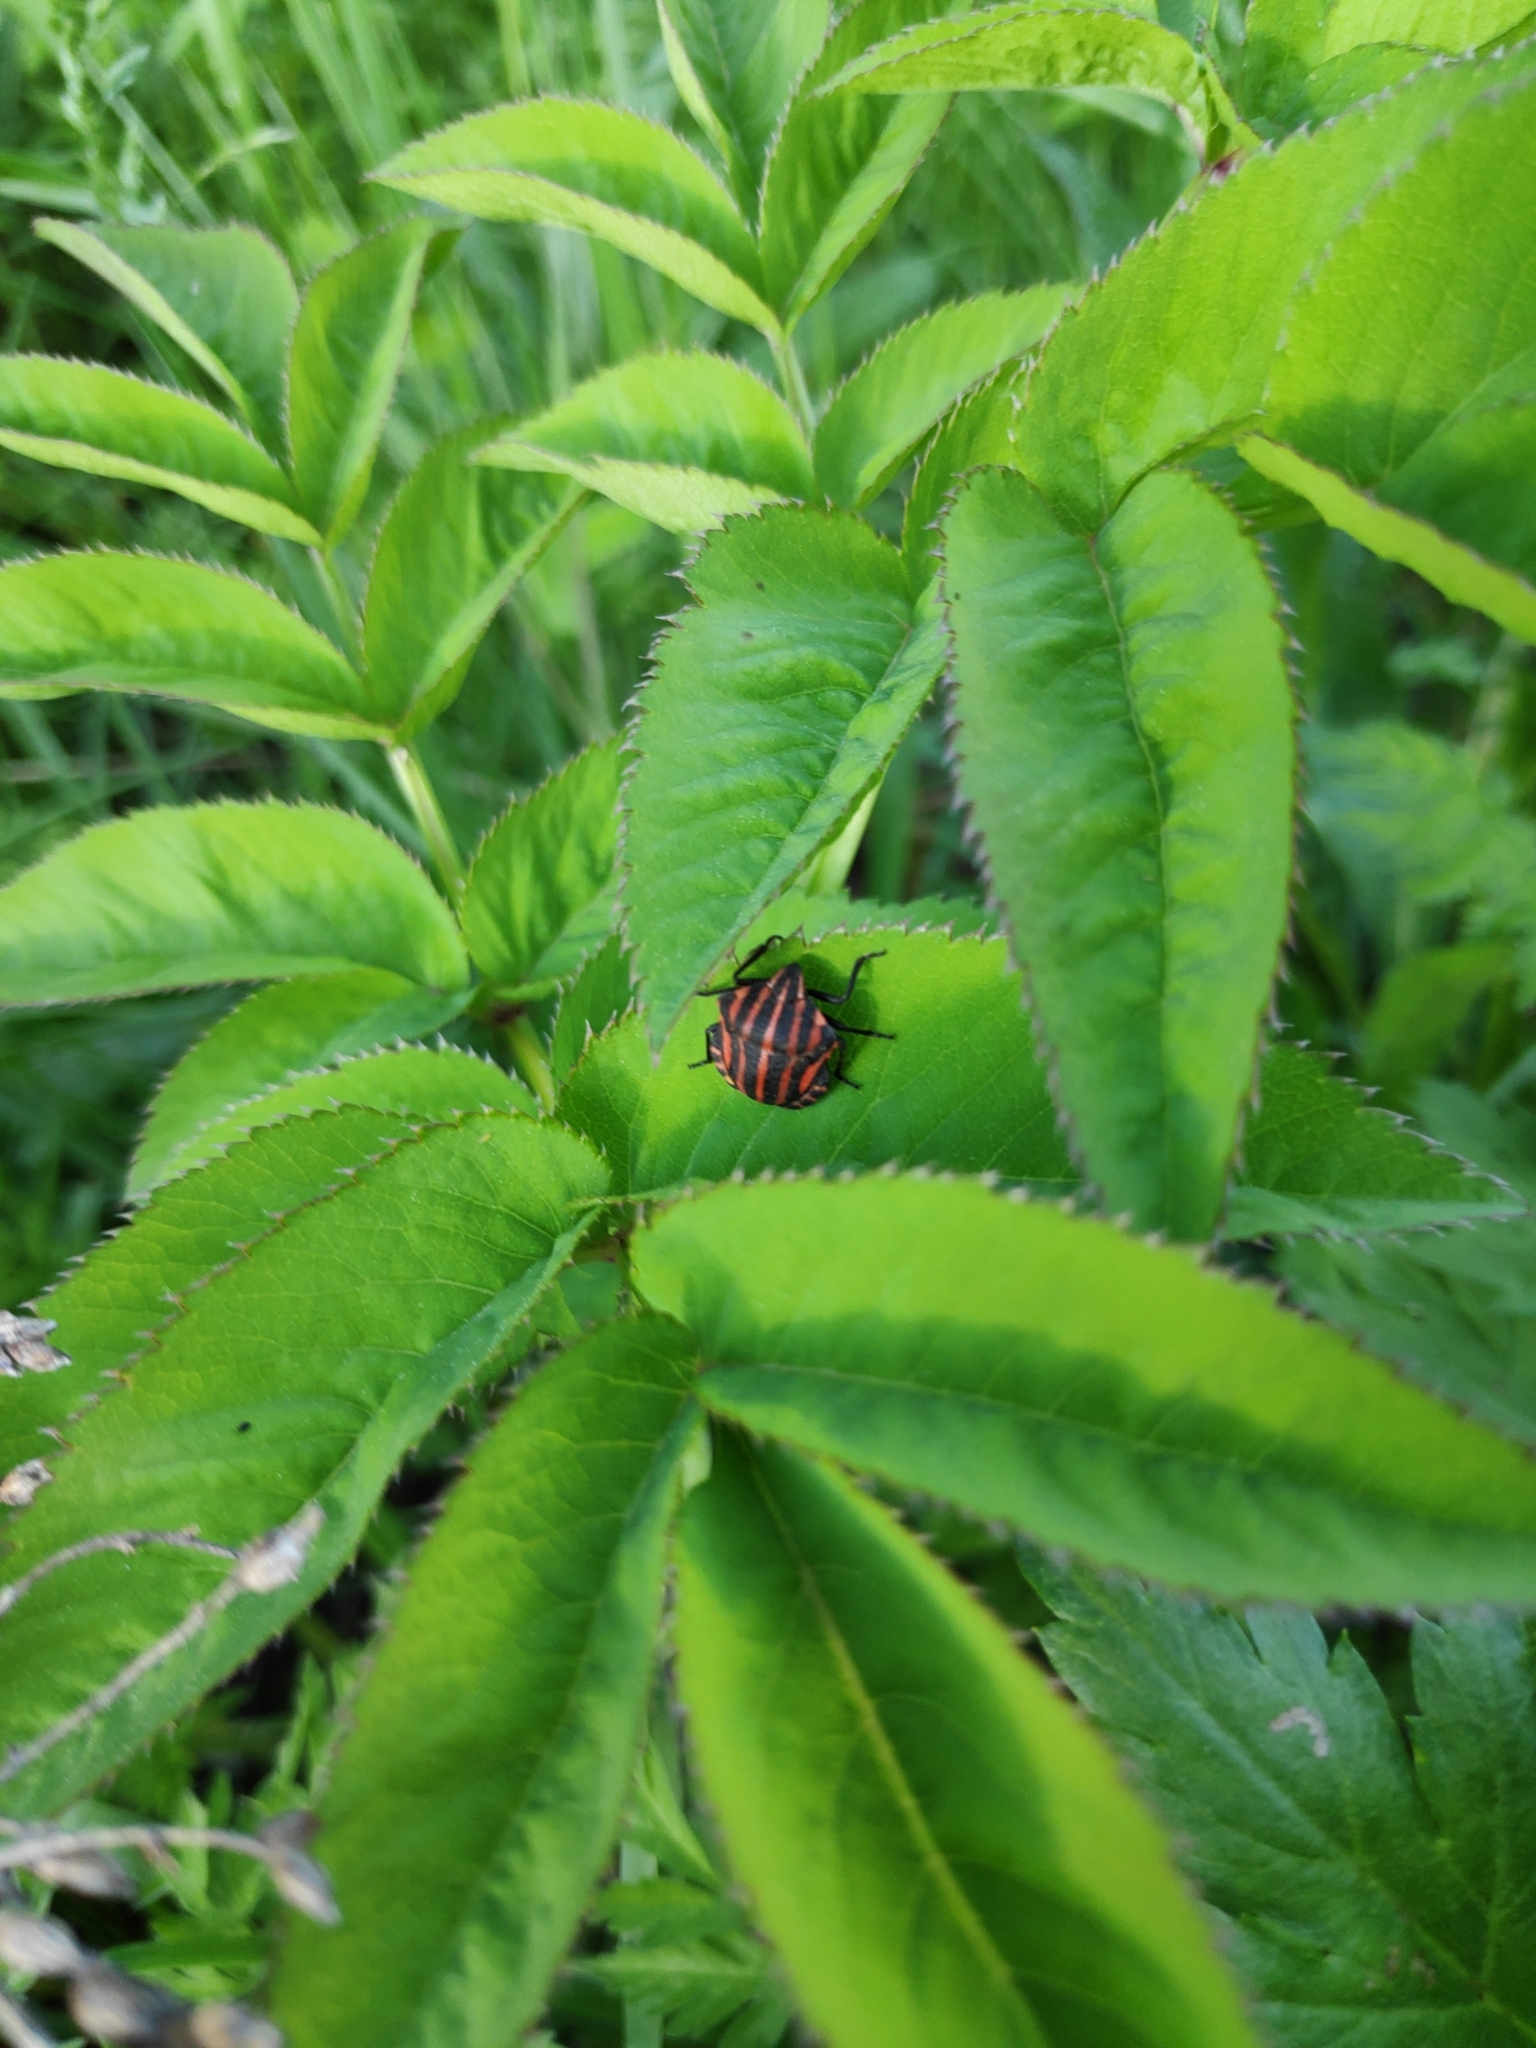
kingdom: Animalia
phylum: Arthropoda
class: Insecta
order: Hemiptera
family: Pentatomidae
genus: Graphosoma
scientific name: Graphosoma italicum
